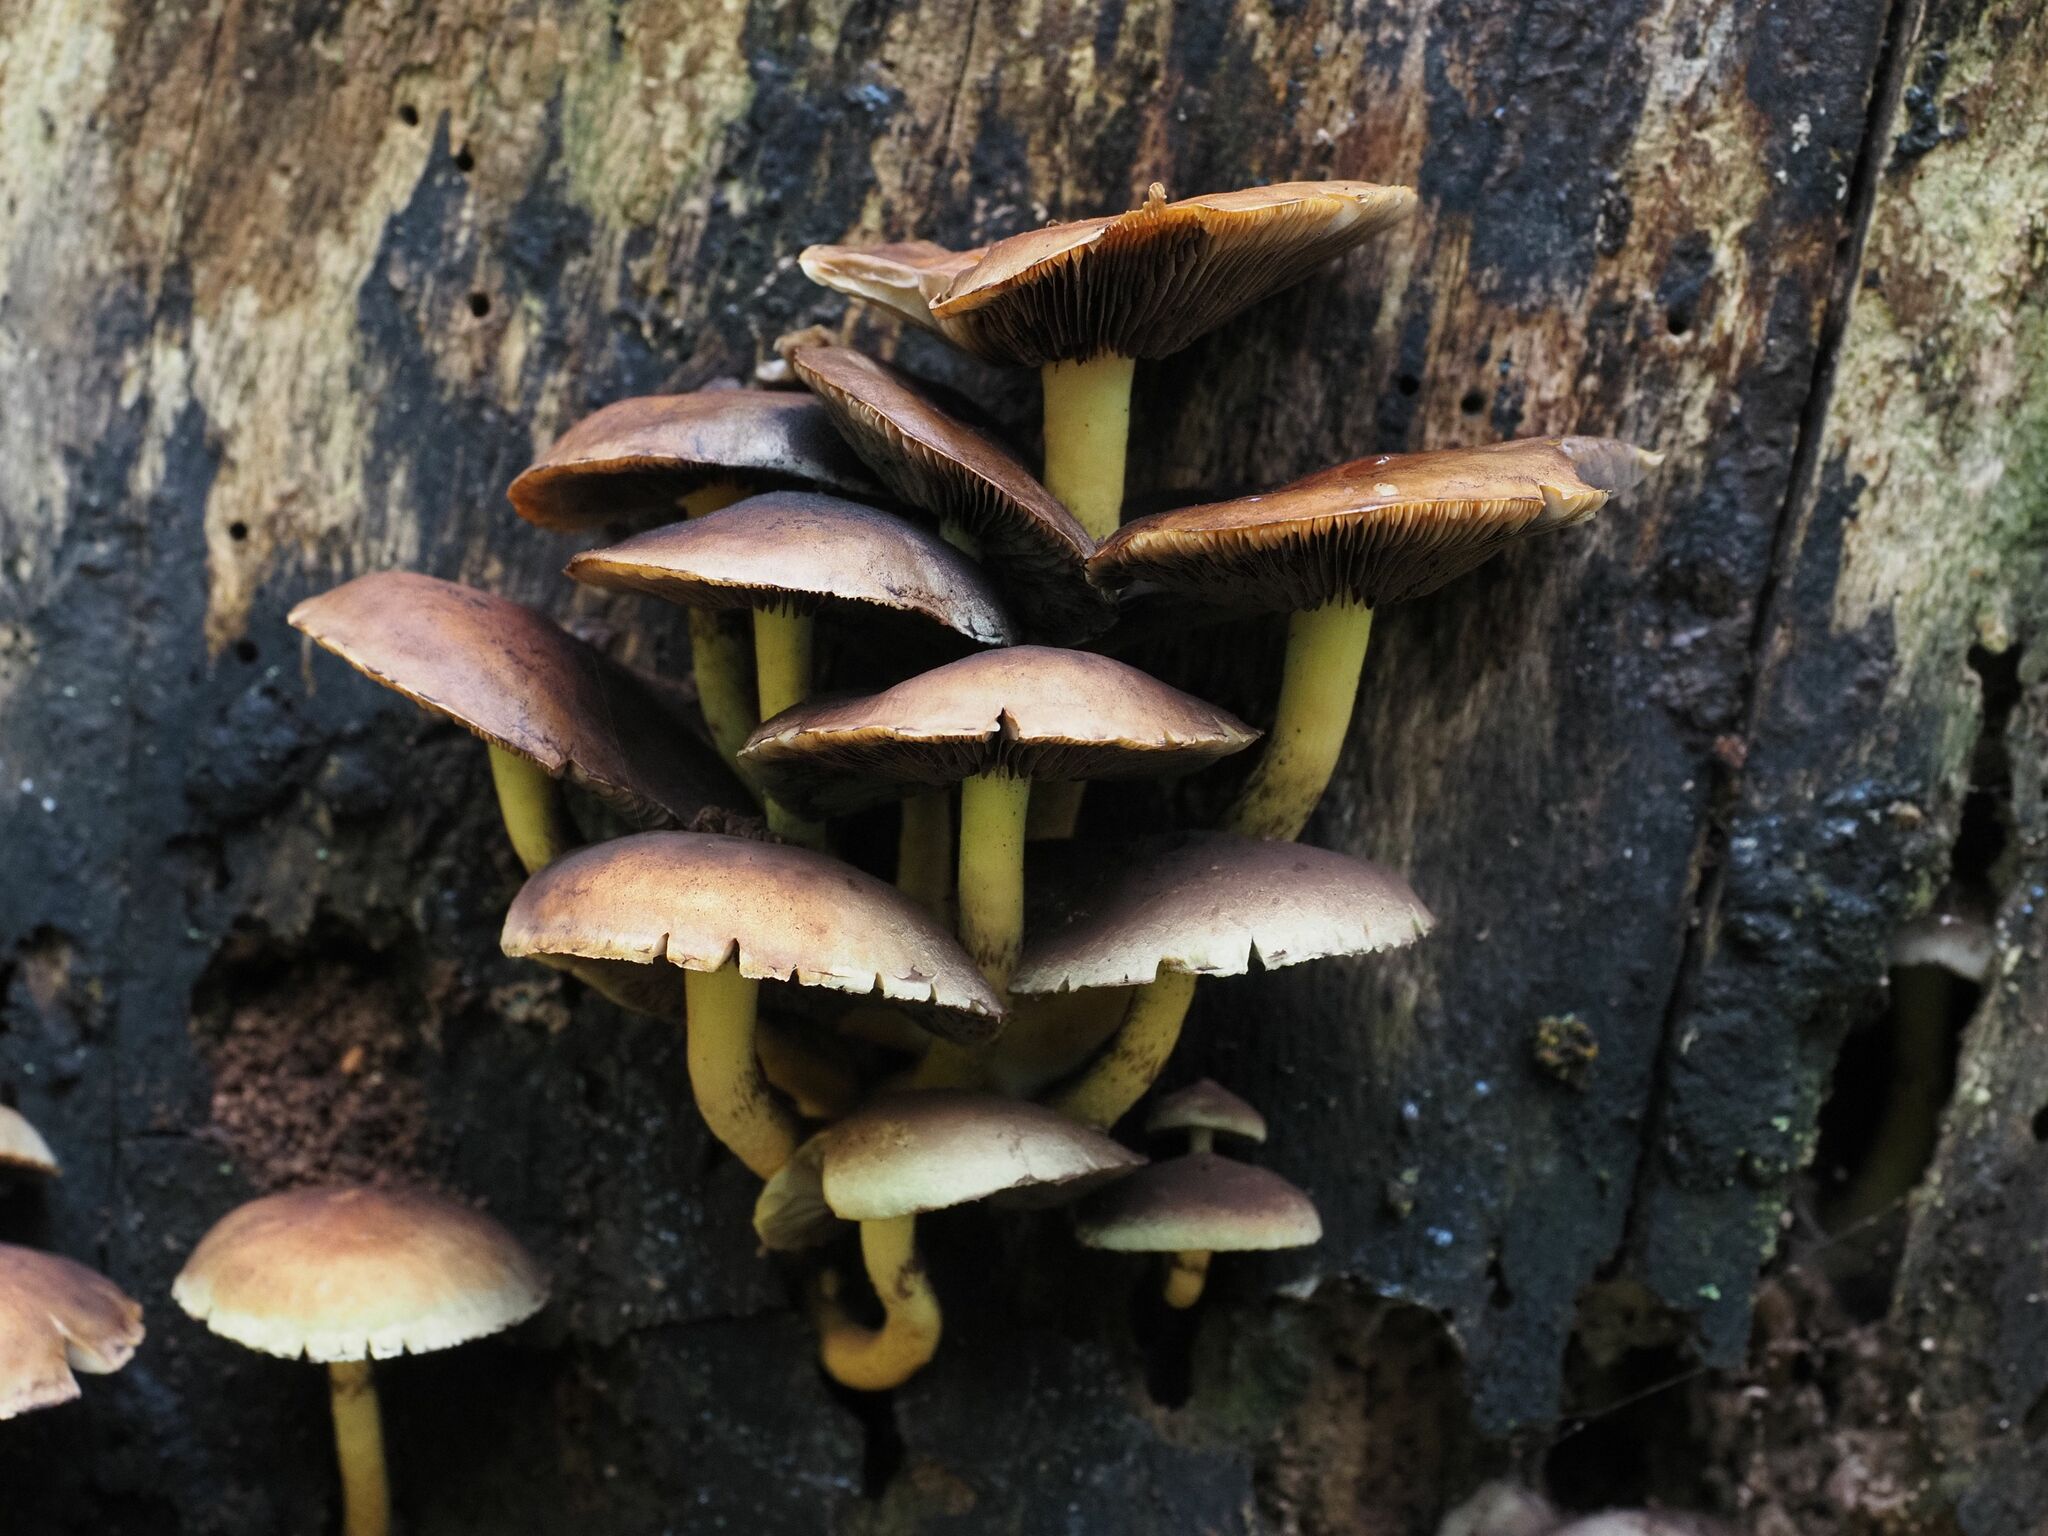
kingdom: Fungi
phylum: Basidiomycota
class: Agaricomycetes
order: Agaricales
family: Strophariaceae
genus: Hypholoma
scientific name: Hypholoma fasciculare
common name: Sulphur tuft
